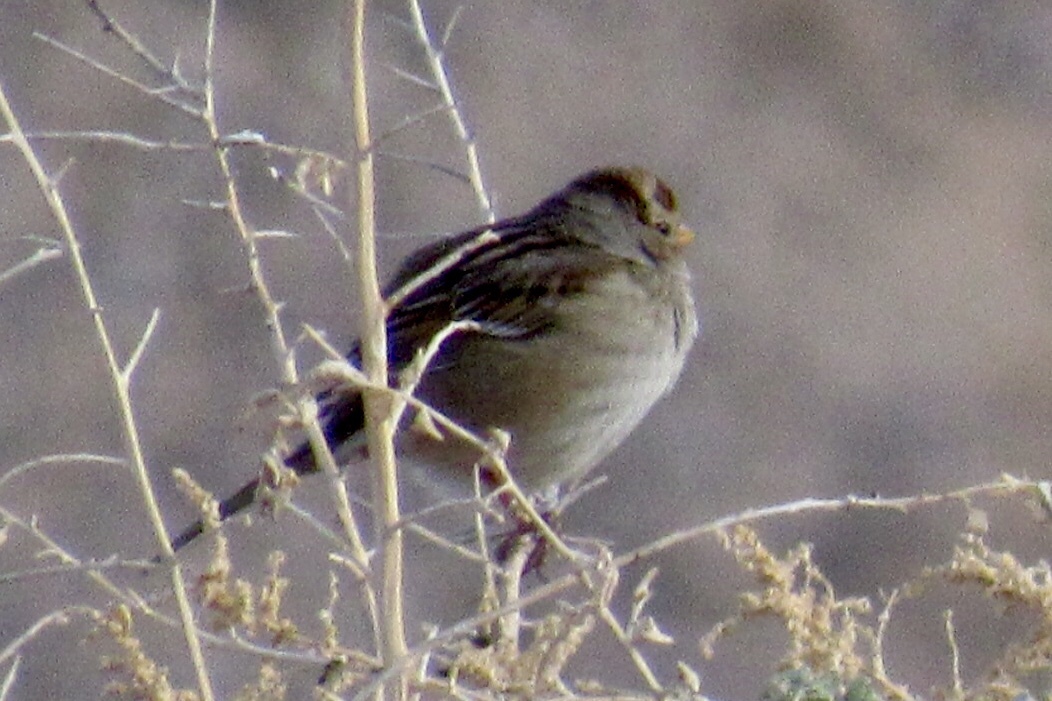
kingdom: Animalia
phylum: Chordata
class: Aves
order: Passeriformes
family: Passerellidae
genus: Zonotrichia
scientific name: Zonotrichia leucophrys
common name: White-crowned sparrow
